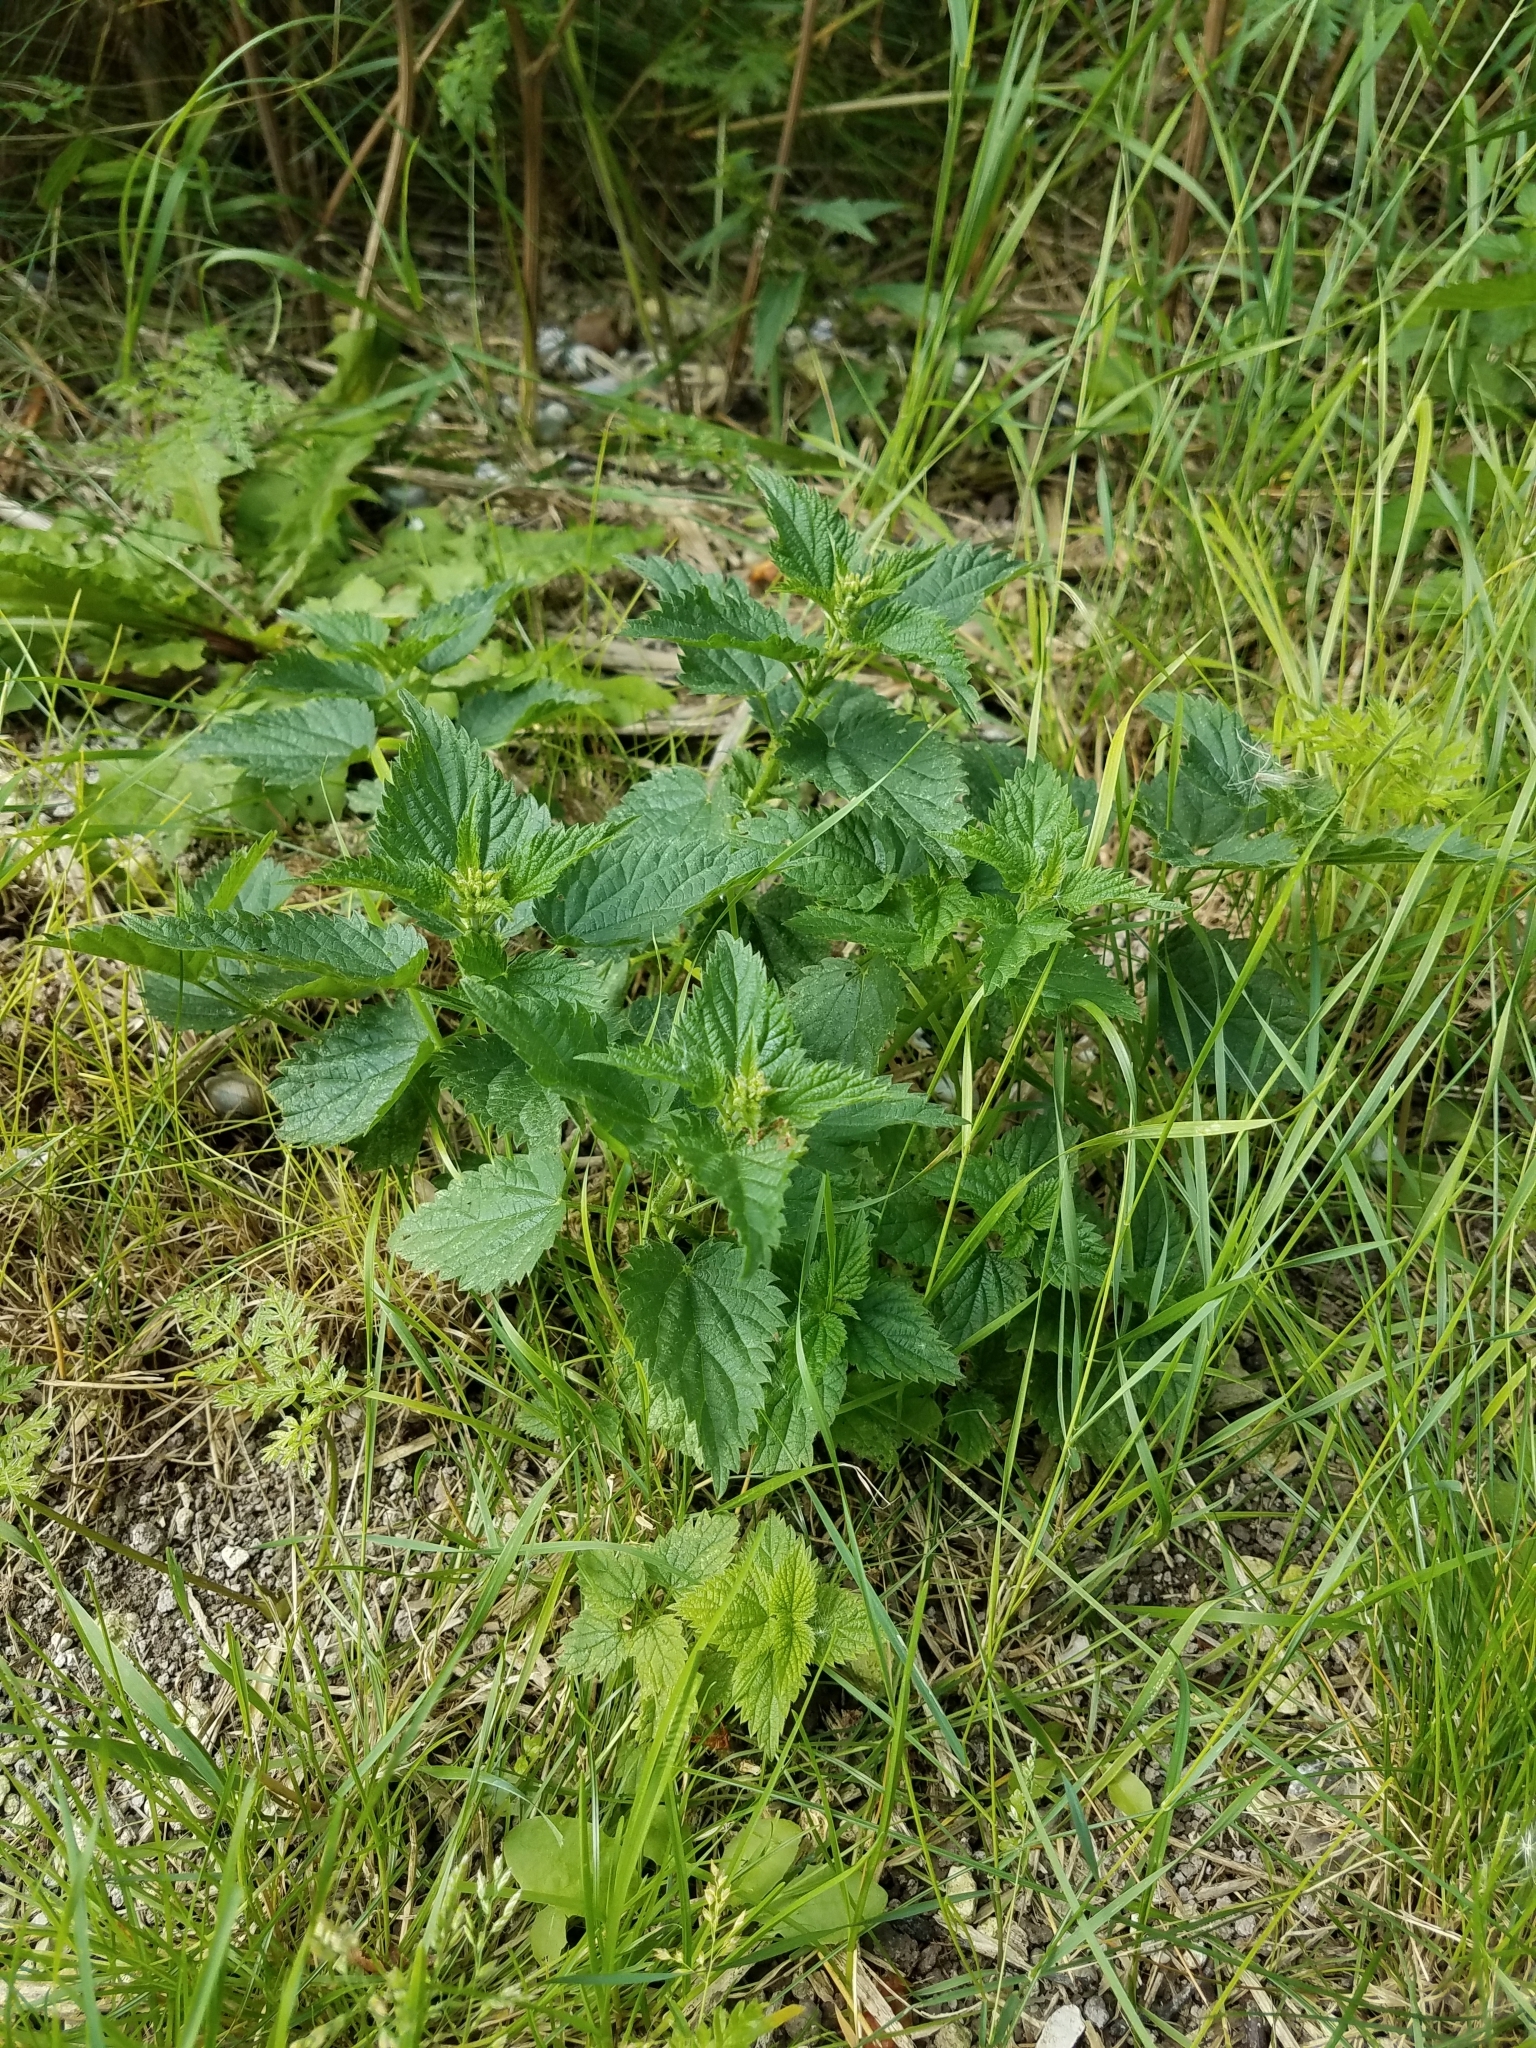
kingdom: Plantae
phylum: Tracheophyta
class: Magnoliopsida
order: Rosales
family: Urticaceae
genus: Urtica
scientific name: Urtica dioica
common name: Common nettle
